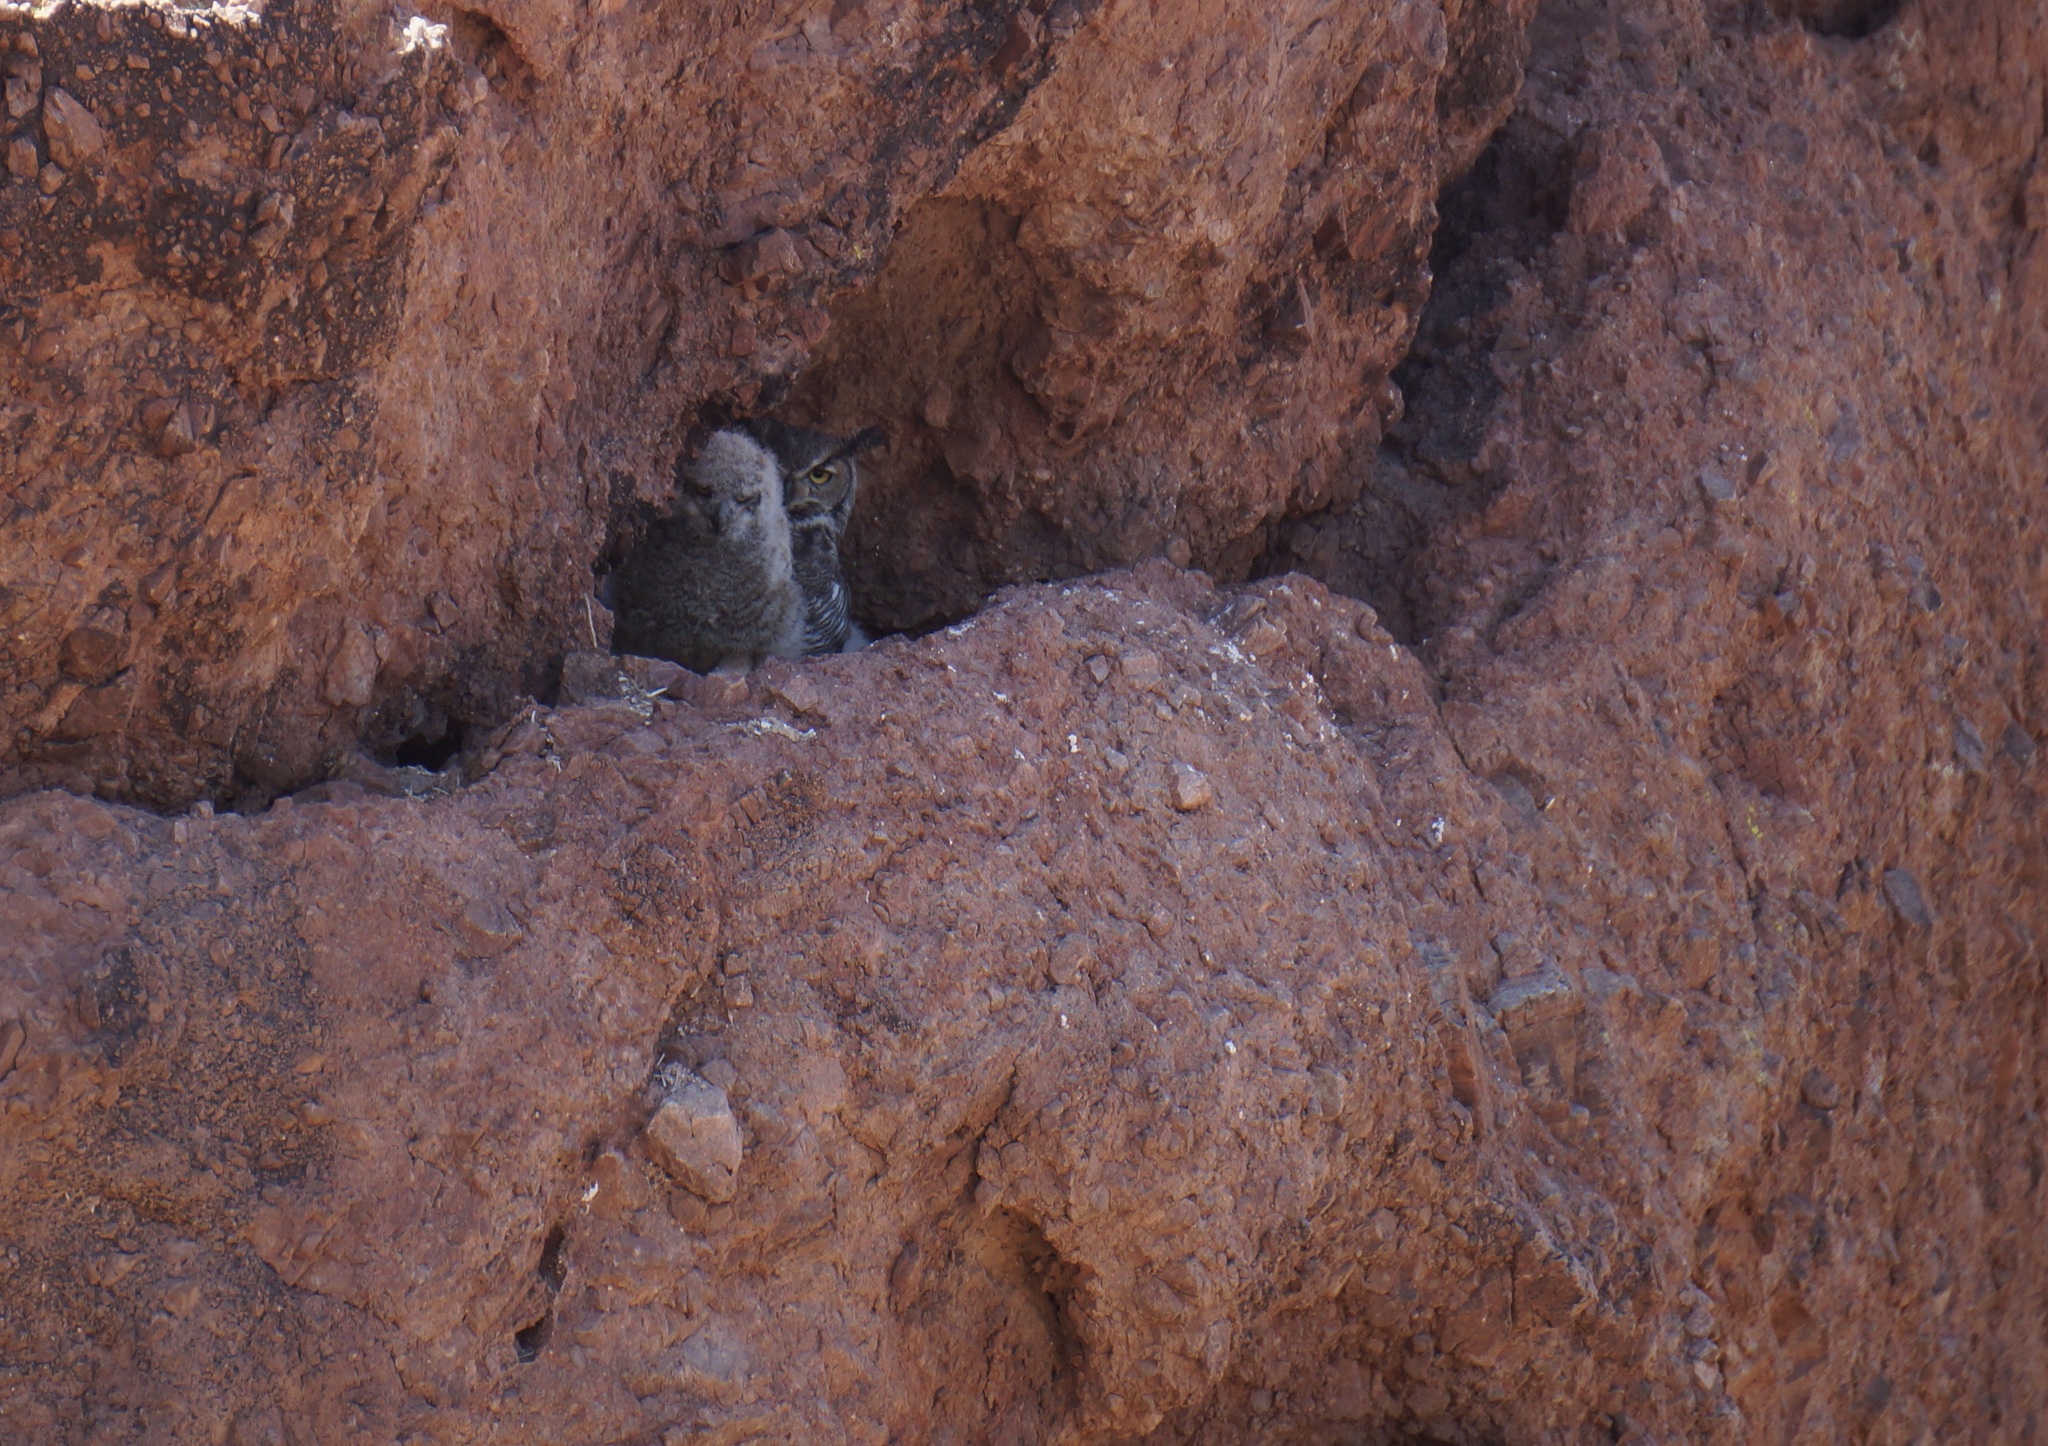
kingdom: Animalia
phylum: Chordata
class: Aves
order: Strigiformes
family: Strigidae
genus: Bubo
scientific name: Bubo virginianus
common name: Great horned owl
